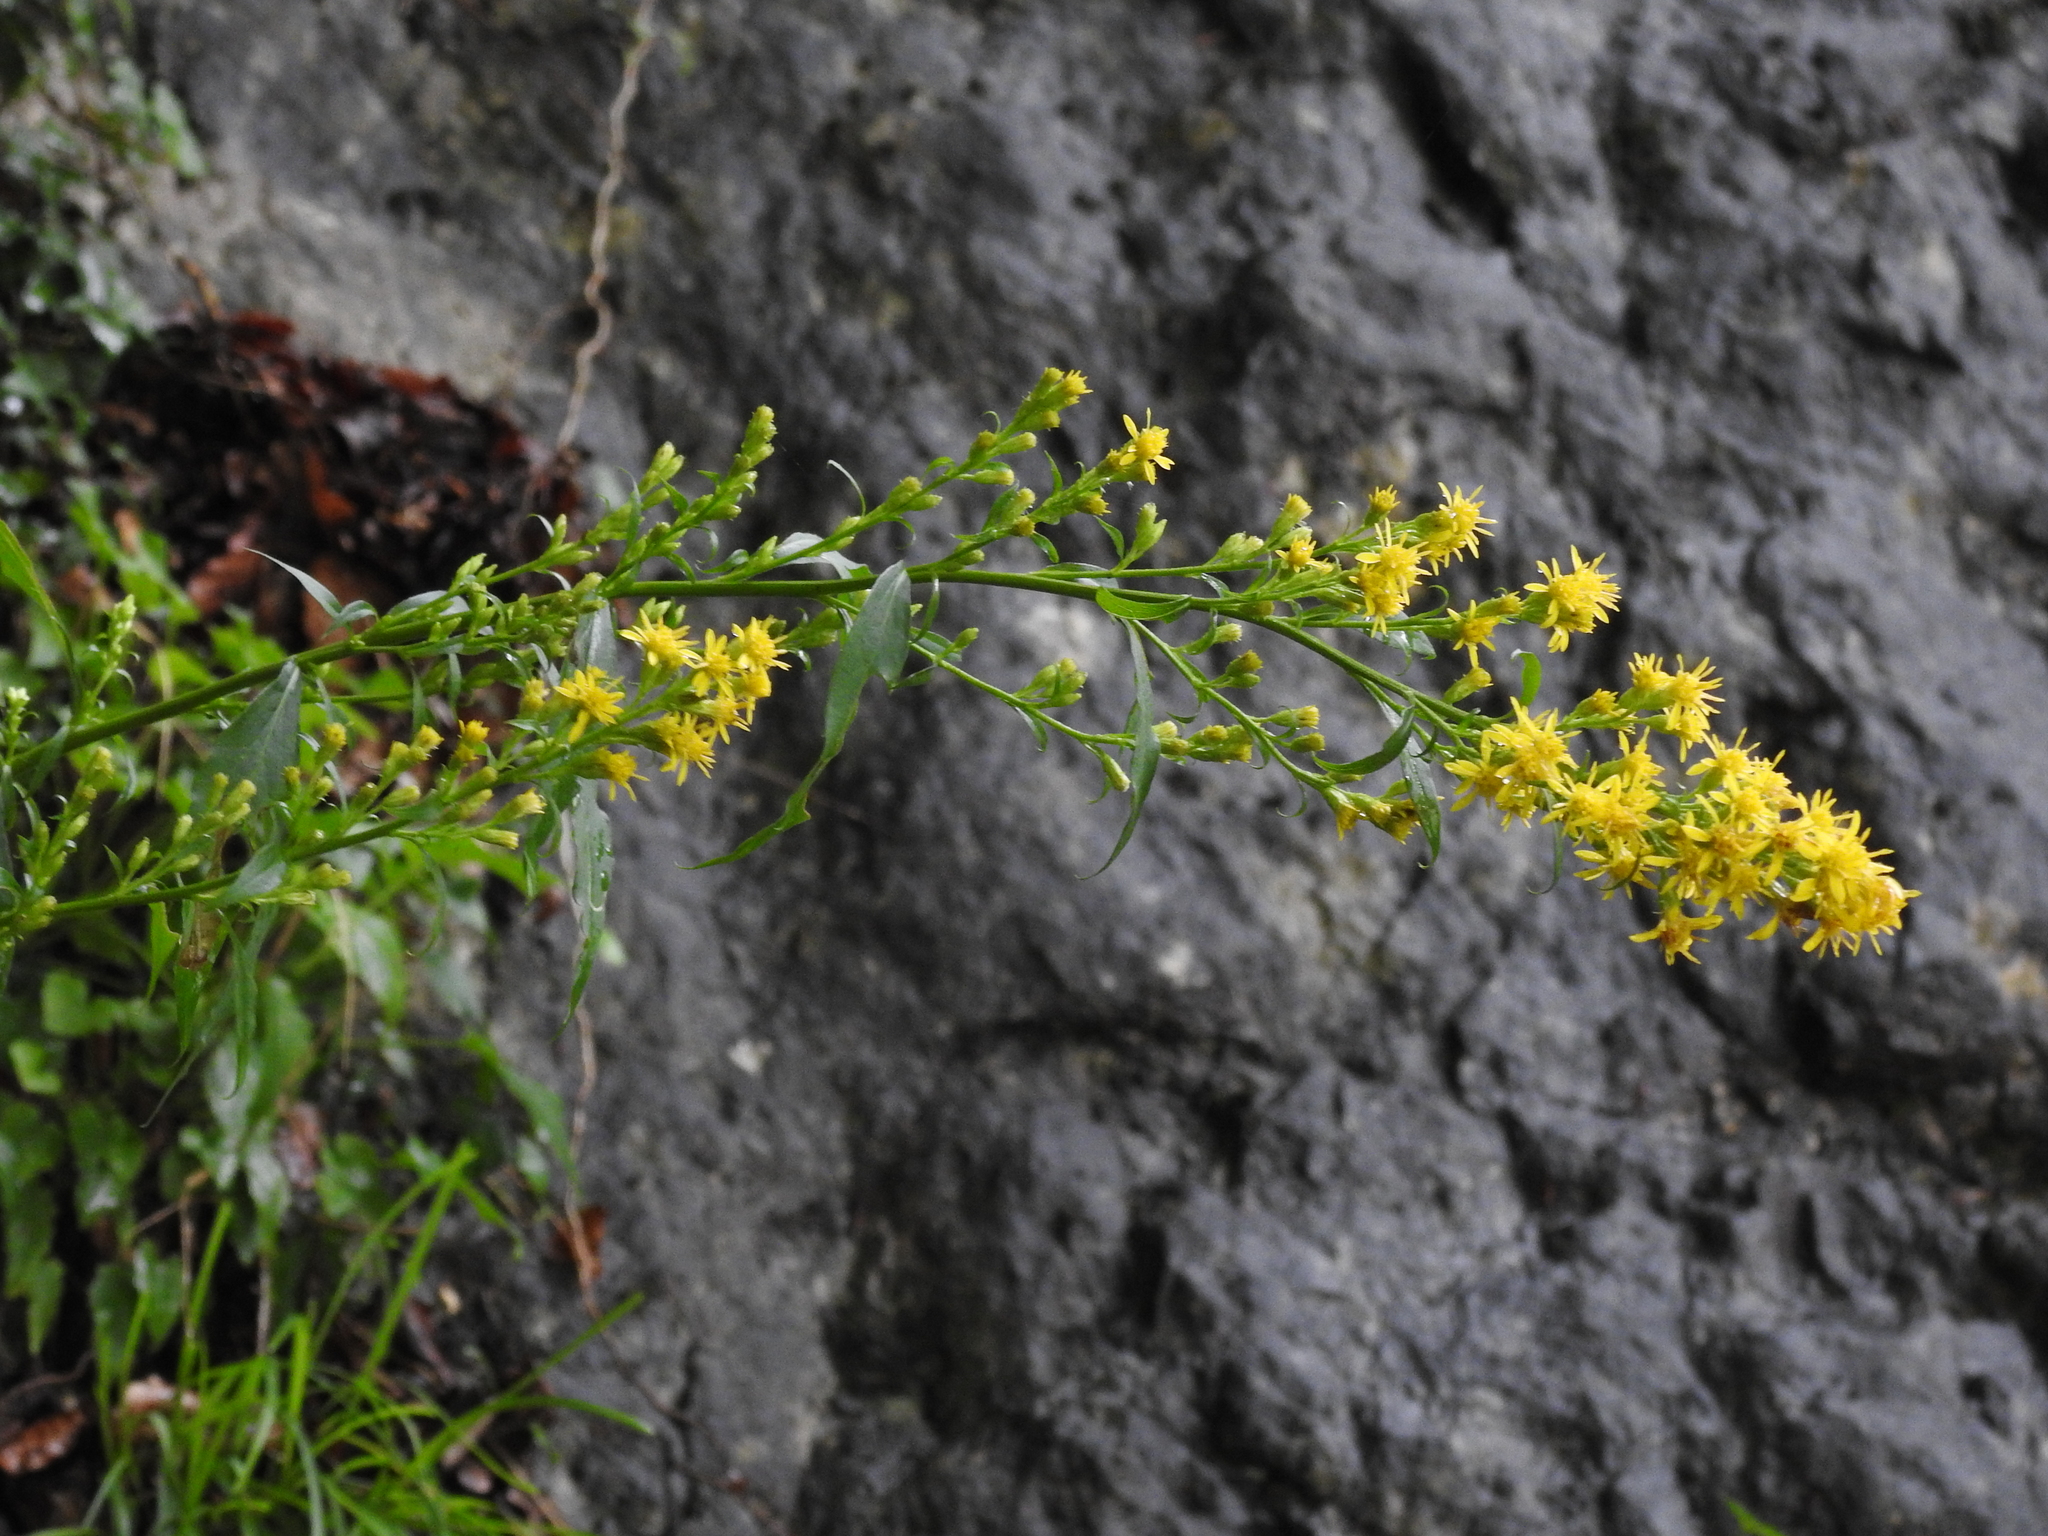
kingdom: Plantae
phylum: Tracheophyta
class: Magnoliopsida
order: Asterales
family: Asteraceae
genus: Solidago
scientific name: Solidago virgaurea
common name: Goldenrod
